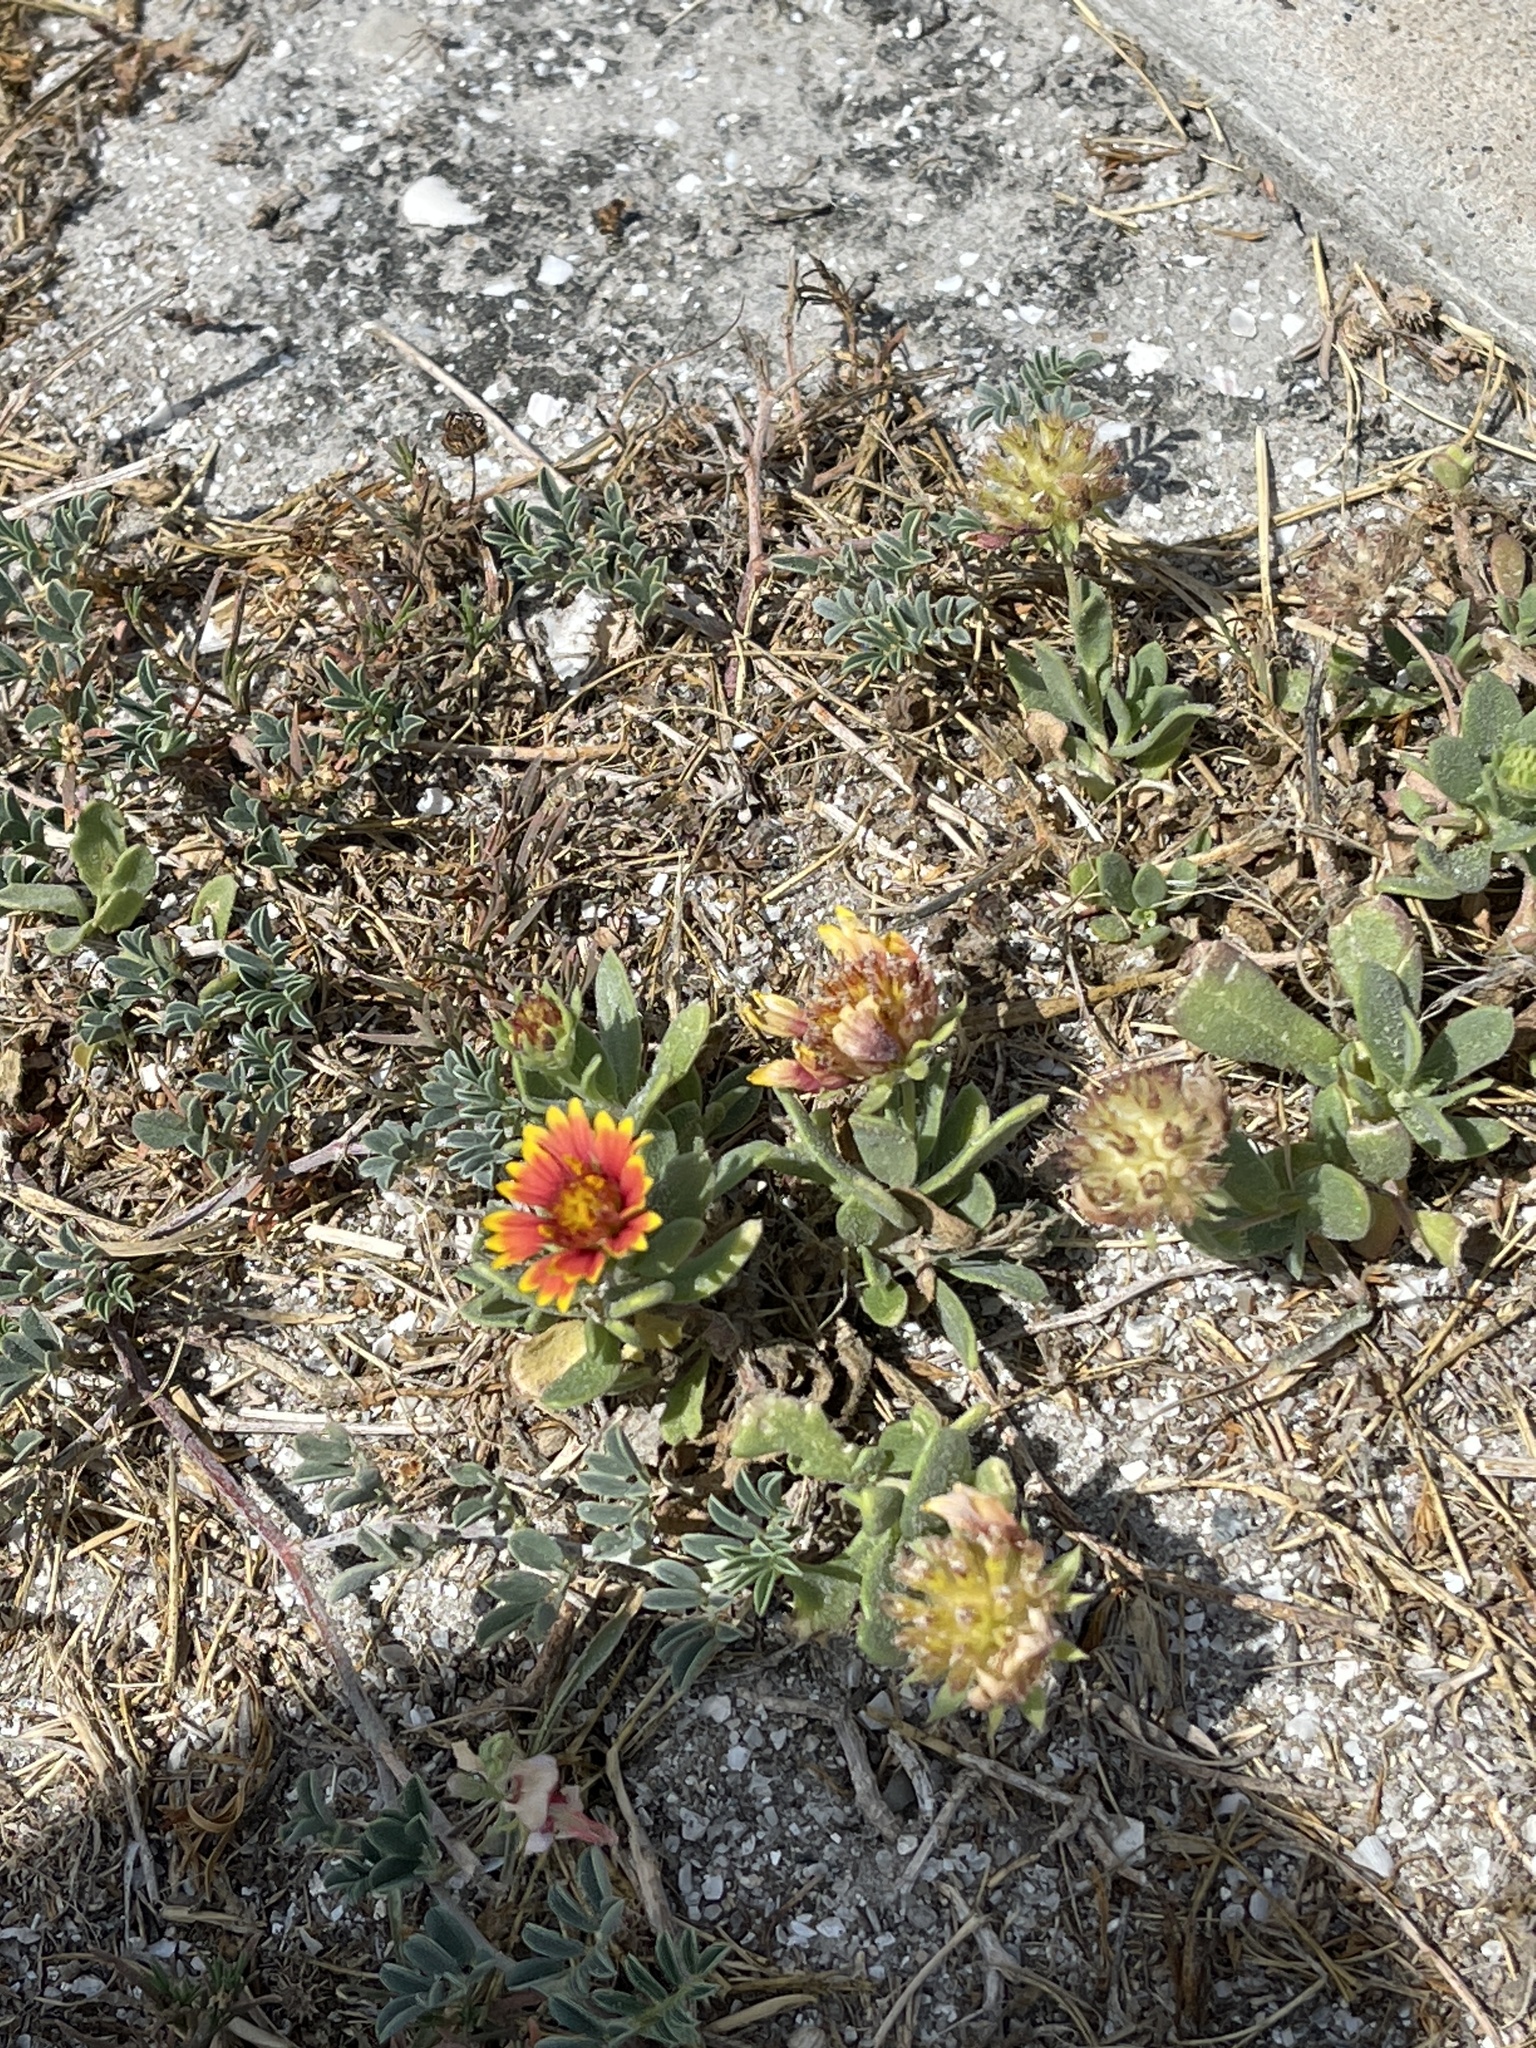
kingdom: Plantae
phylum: Tracheophyta
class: Magnoliopsida
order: Asterales
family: Asteraceae
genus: Gaillardia
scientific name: Gaillardia pulchella
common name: Firewheel
